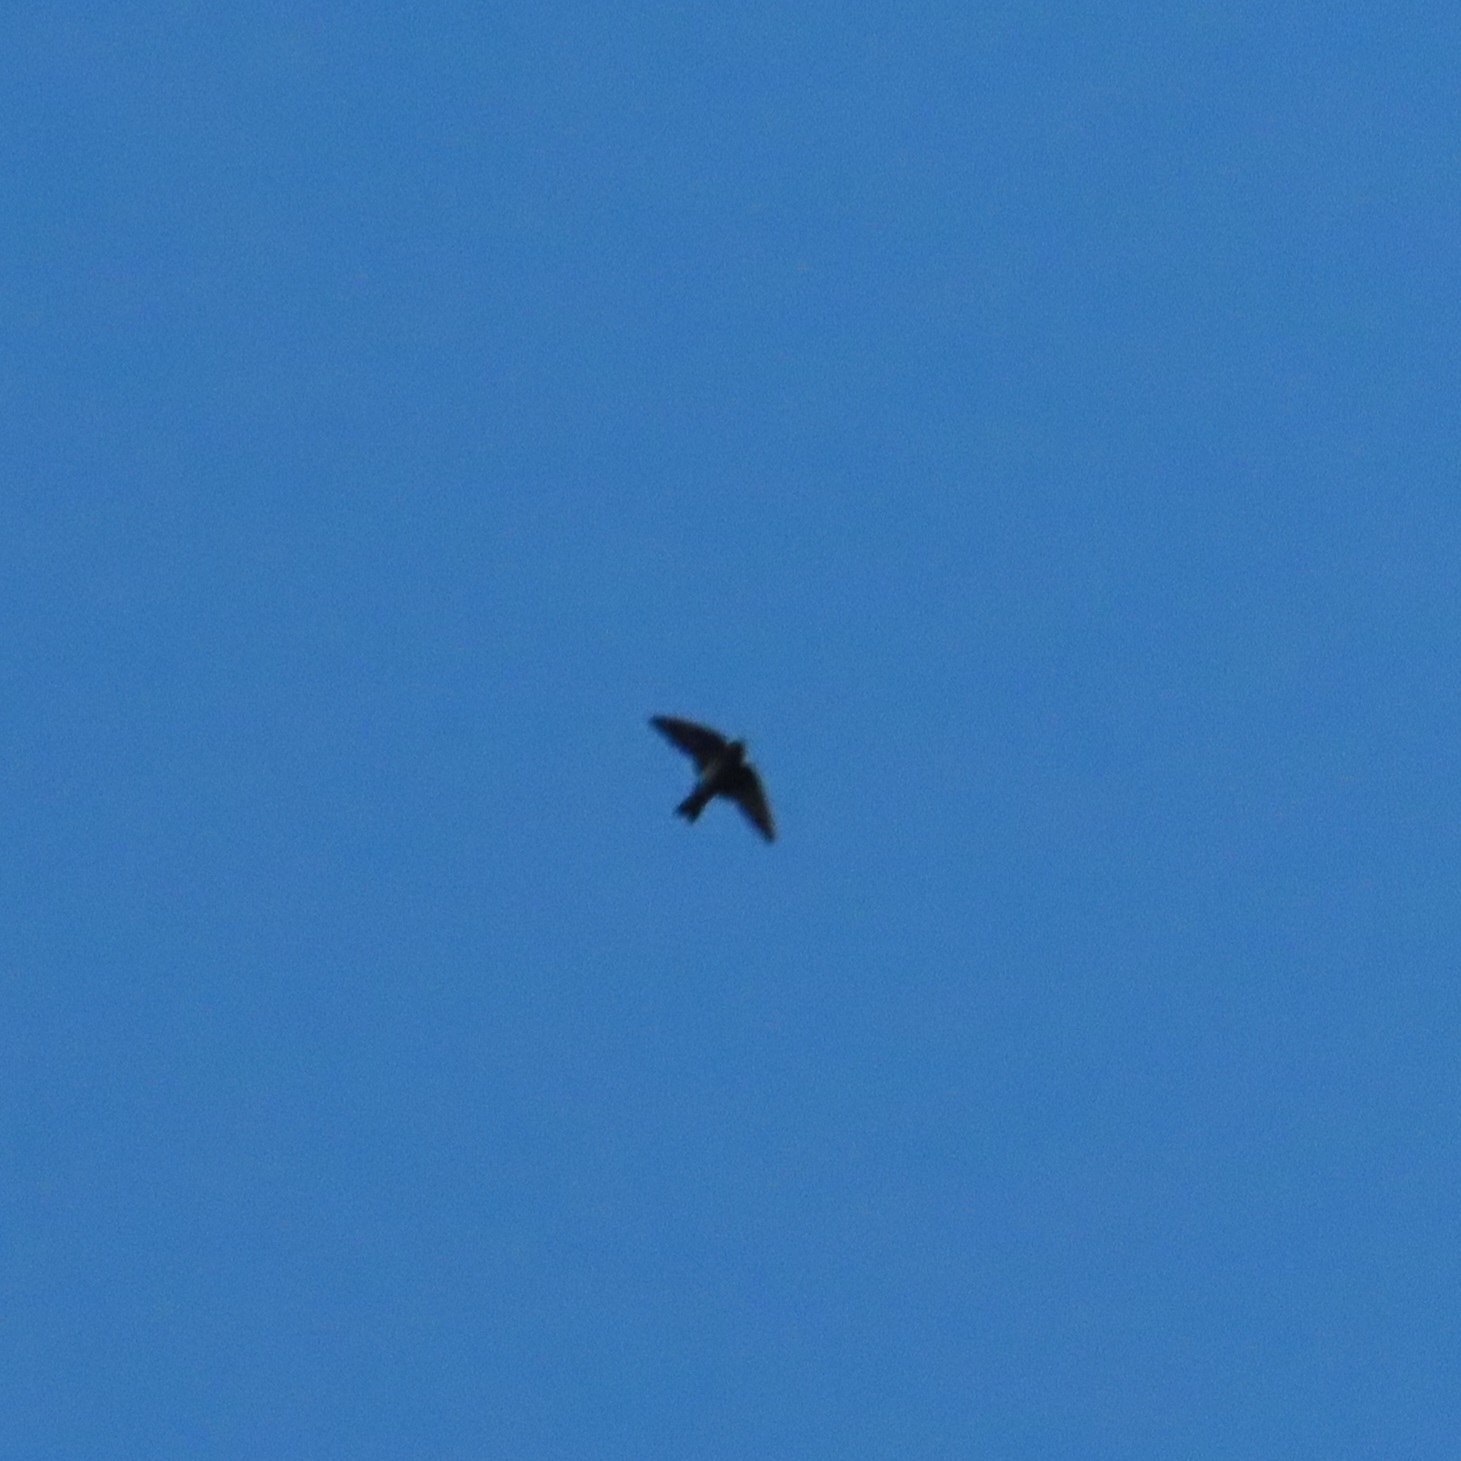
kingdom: Animalia
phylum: Chordata
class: Aves
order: Passeriformes
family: Hirundinidae
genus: Petrochelidon
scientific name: Petrochelidon fulva
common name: Cave swallow
